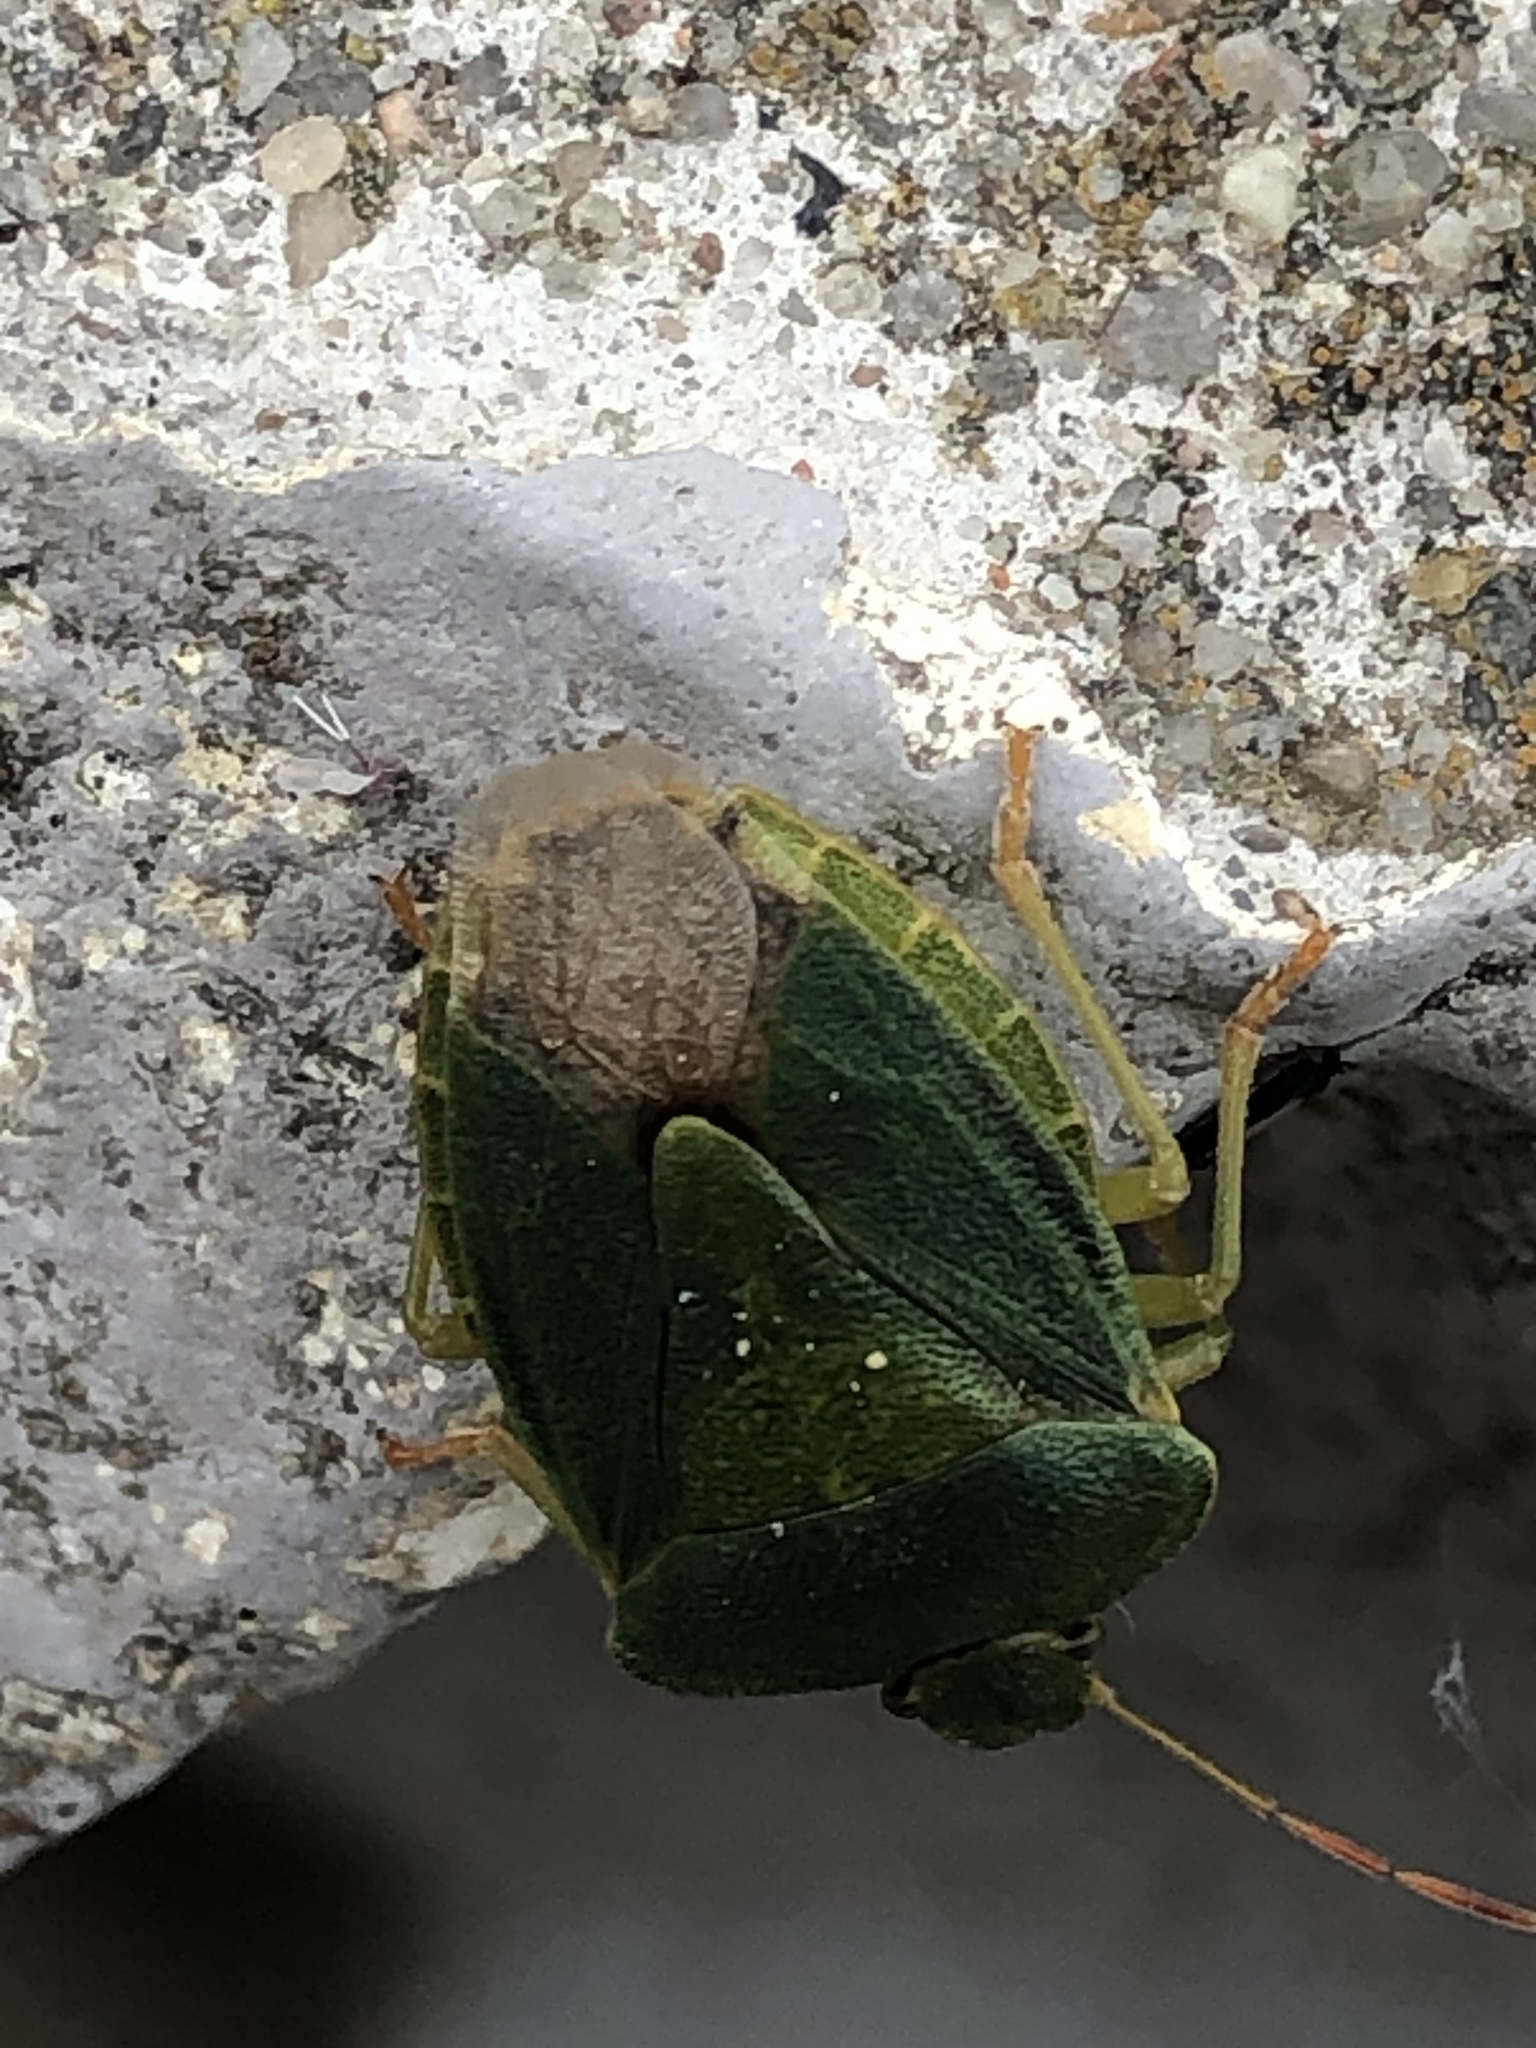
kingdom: Animalia
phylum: Arthropoda
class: Insecta
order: Hemiptera
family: Pentatomidae
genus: Palomena
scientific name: Palomena prasina
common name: Green shieldbug
